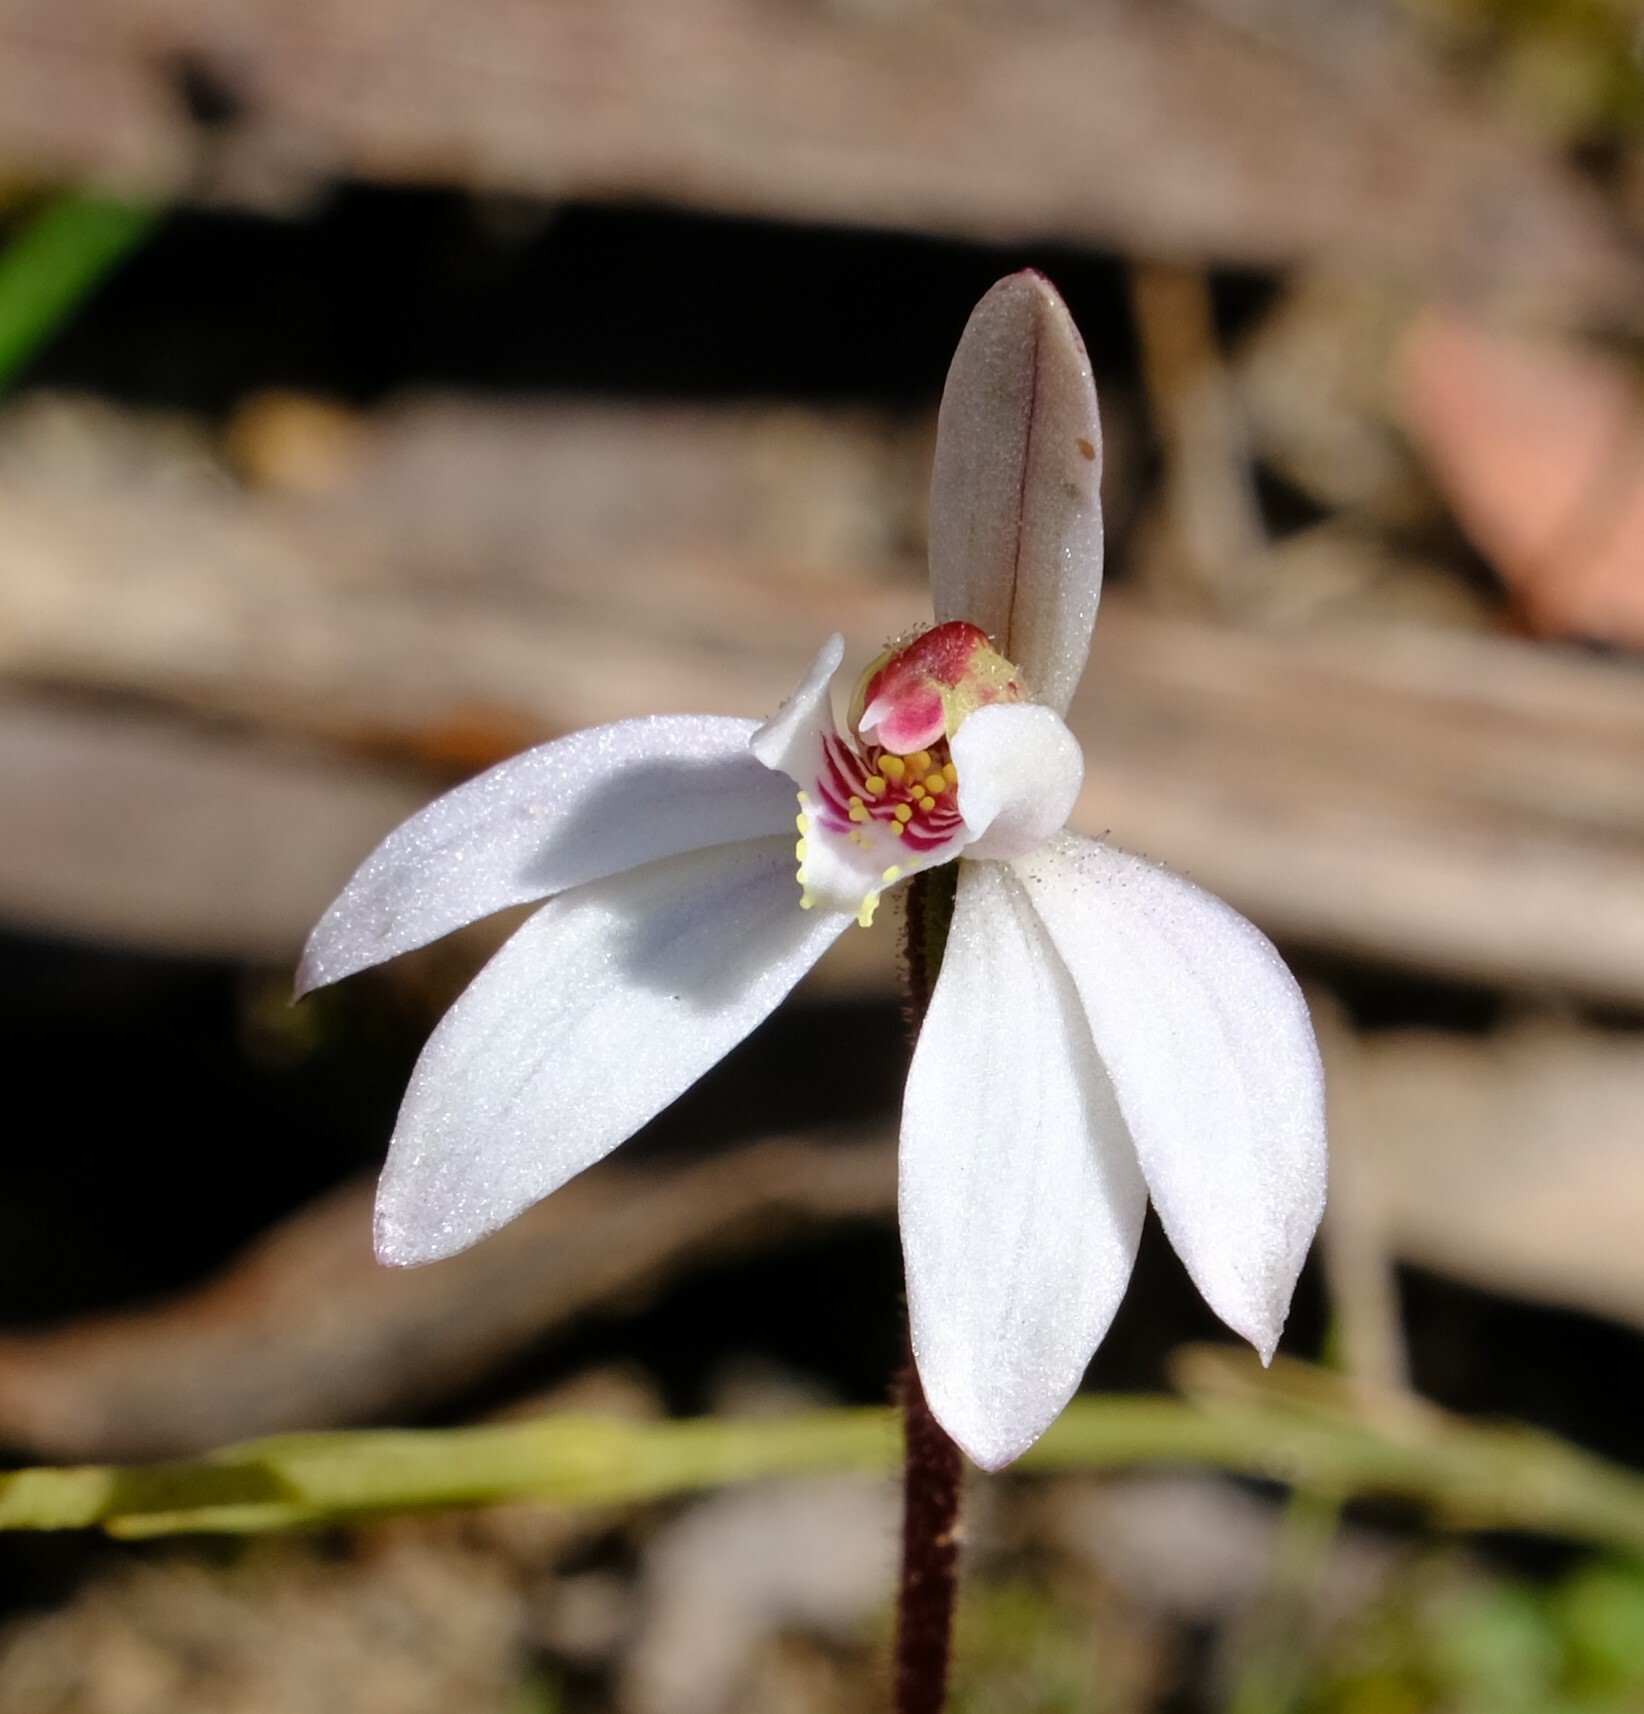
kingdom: Plantae
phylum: Tracheophyta
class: Liliopsida
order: Asparagales
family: Orchidaceae
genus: Caladenia
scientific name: Caladenia fuscata
